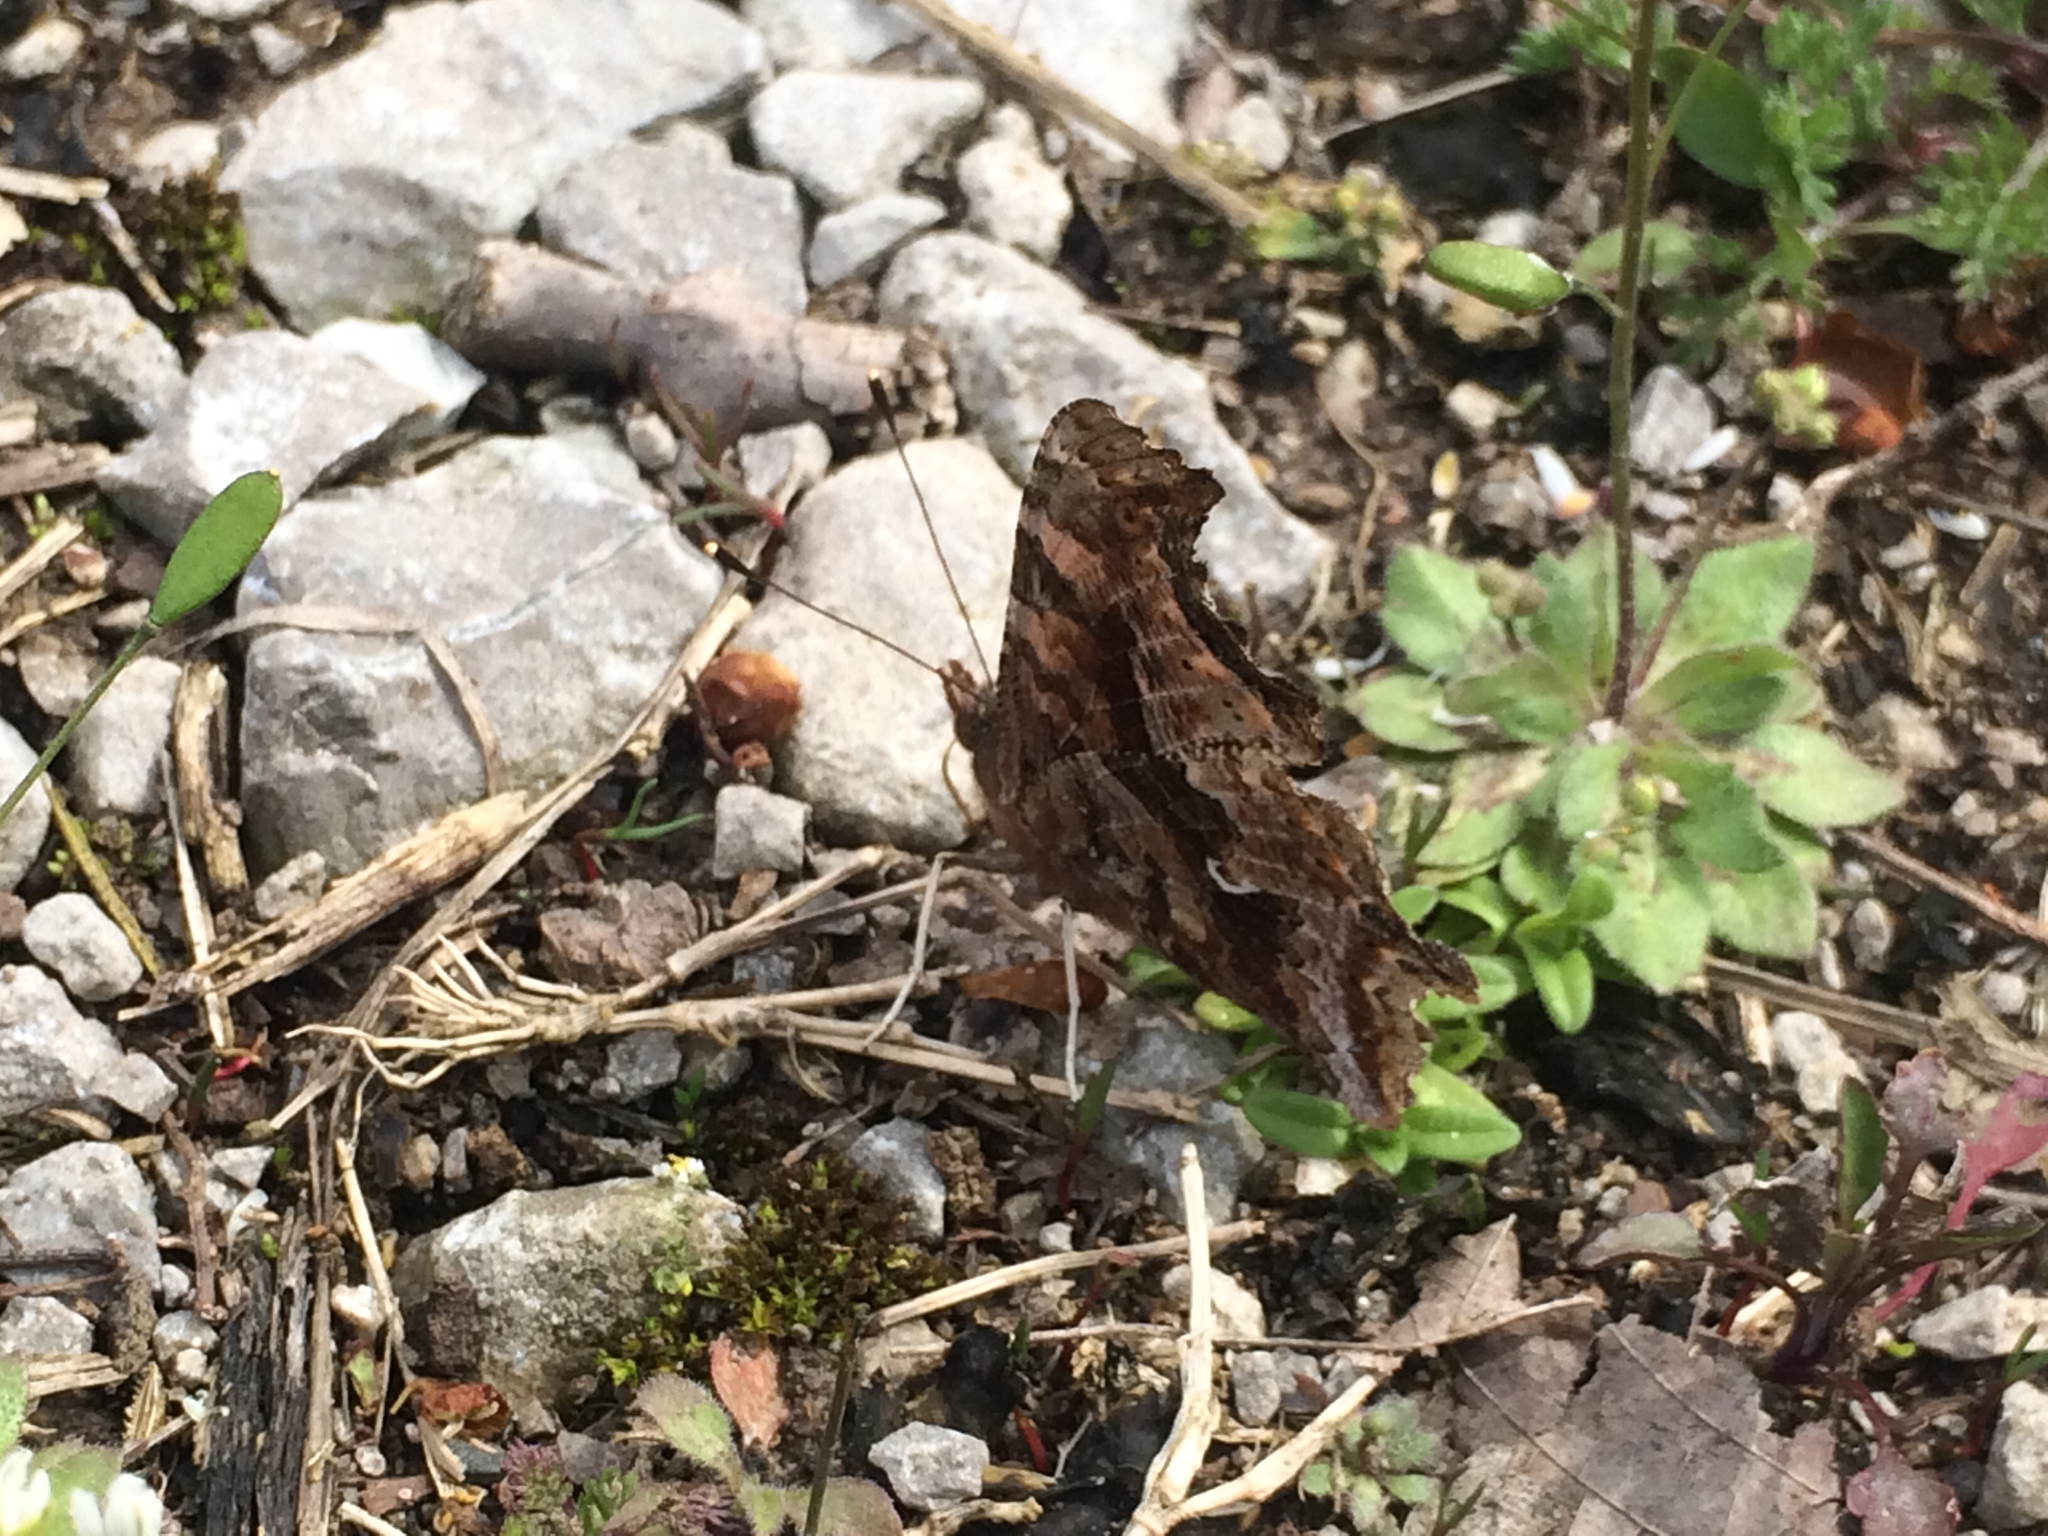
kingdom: Animalia
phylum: Arthropoda
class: Insecta
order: Lepidoptera
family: Nymphalidae
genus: Polygonia
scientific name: Polygonia comma
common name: Eastern comma
